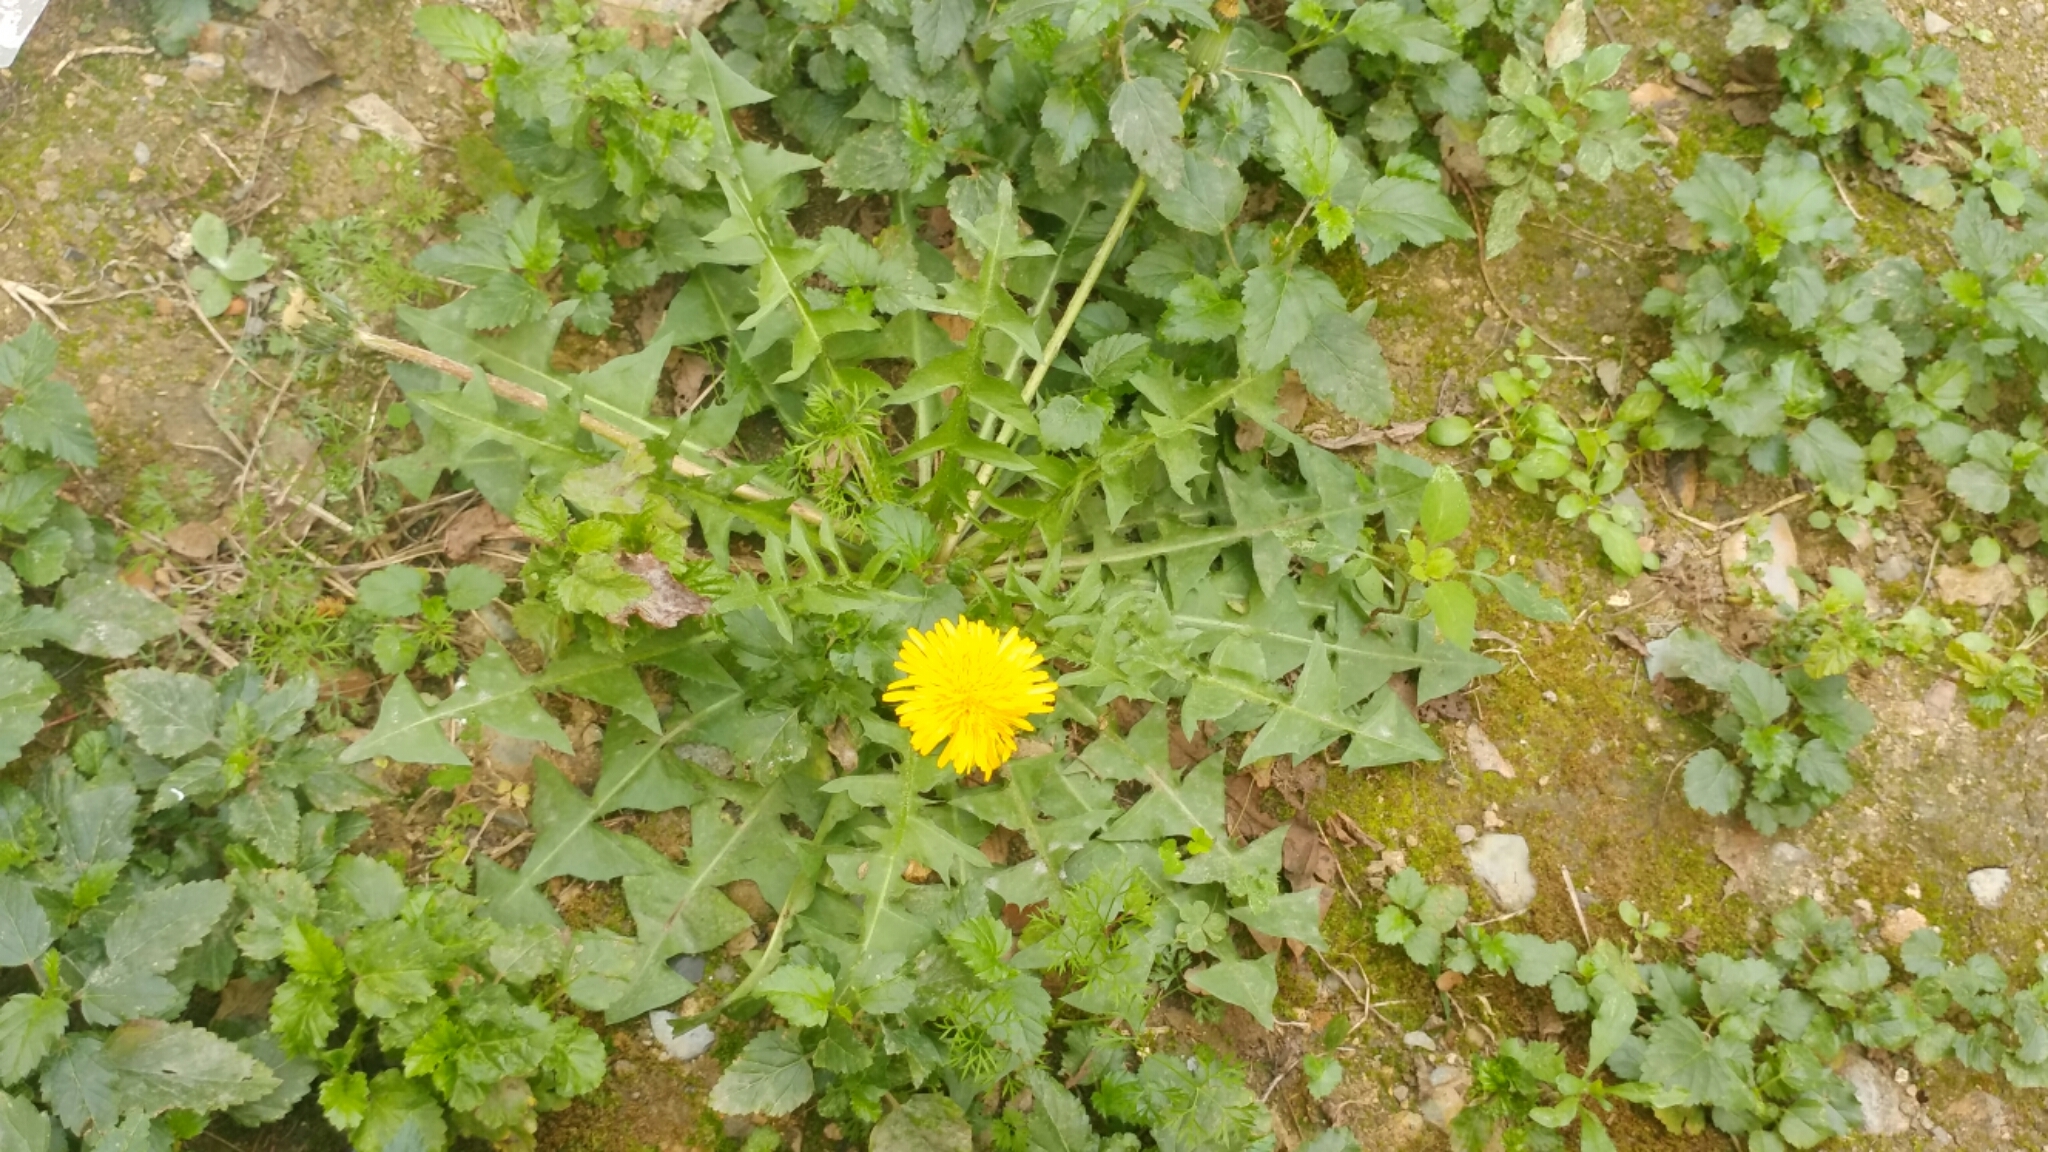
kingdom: Plantae
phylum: Tracheophyta
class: Magnoliopsida
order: Asterales
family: Asteraceae
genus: Taraxacum
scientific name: Taraxacum officinale
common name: Common dandelion
